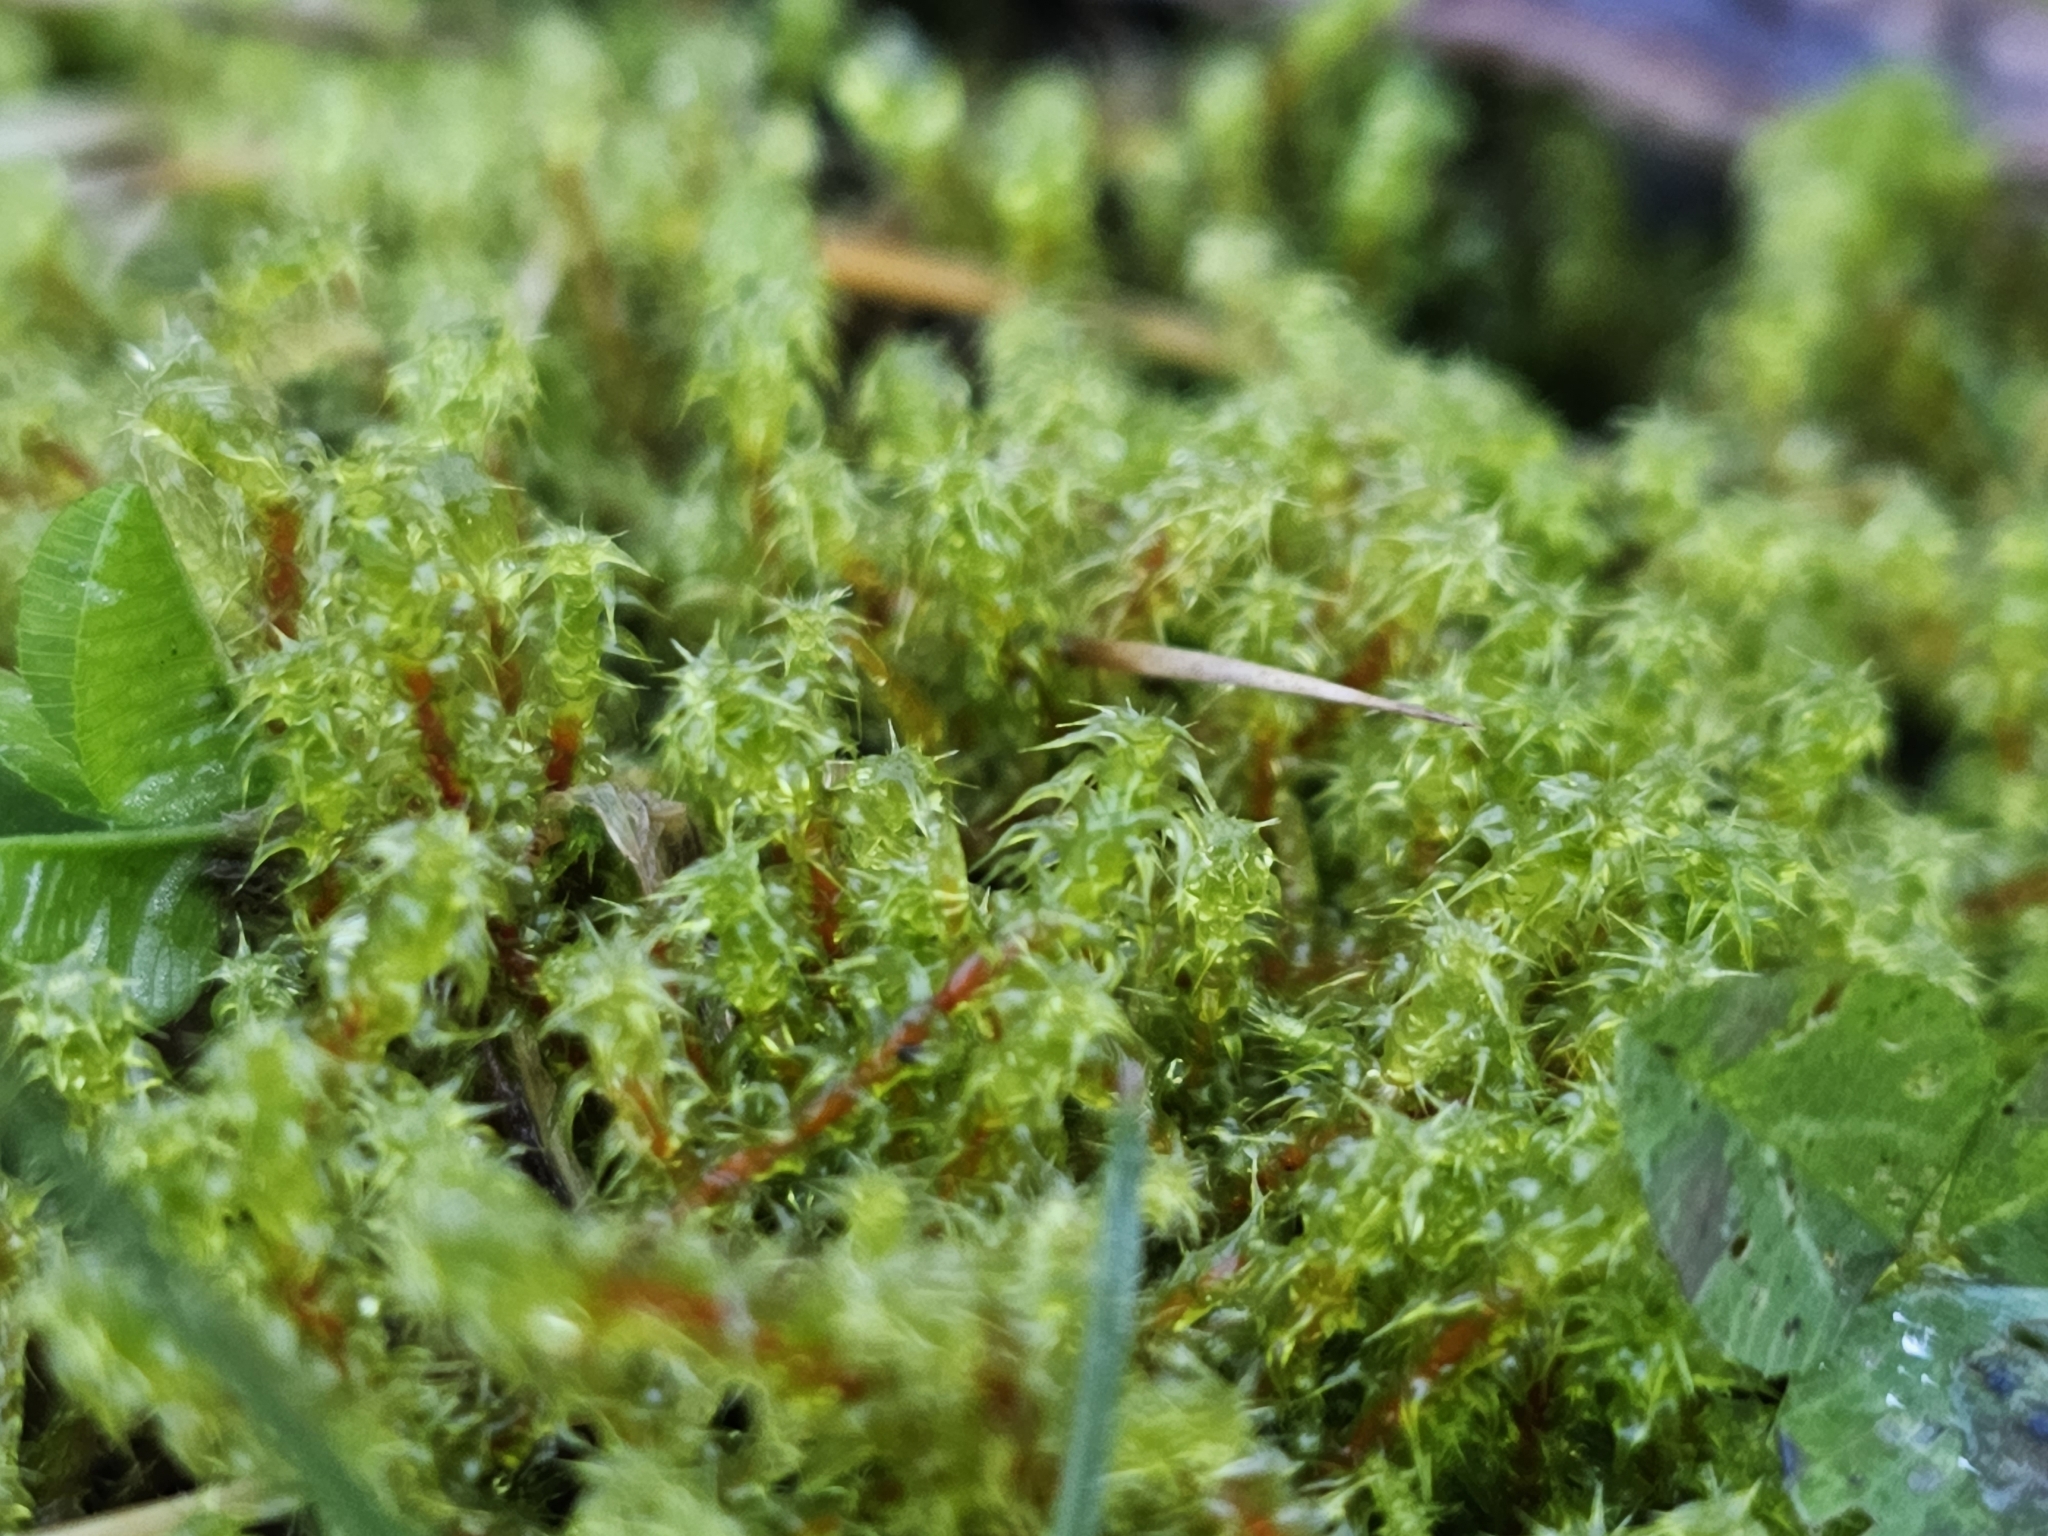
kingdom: Plantae
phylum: Bryophyta
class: Bryopsida
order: Hypnales
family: Hylocomiaceae
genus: Rhytidiadelphus
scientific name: Rhytidiadelphus squarrosus
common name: Springy turf-moss
